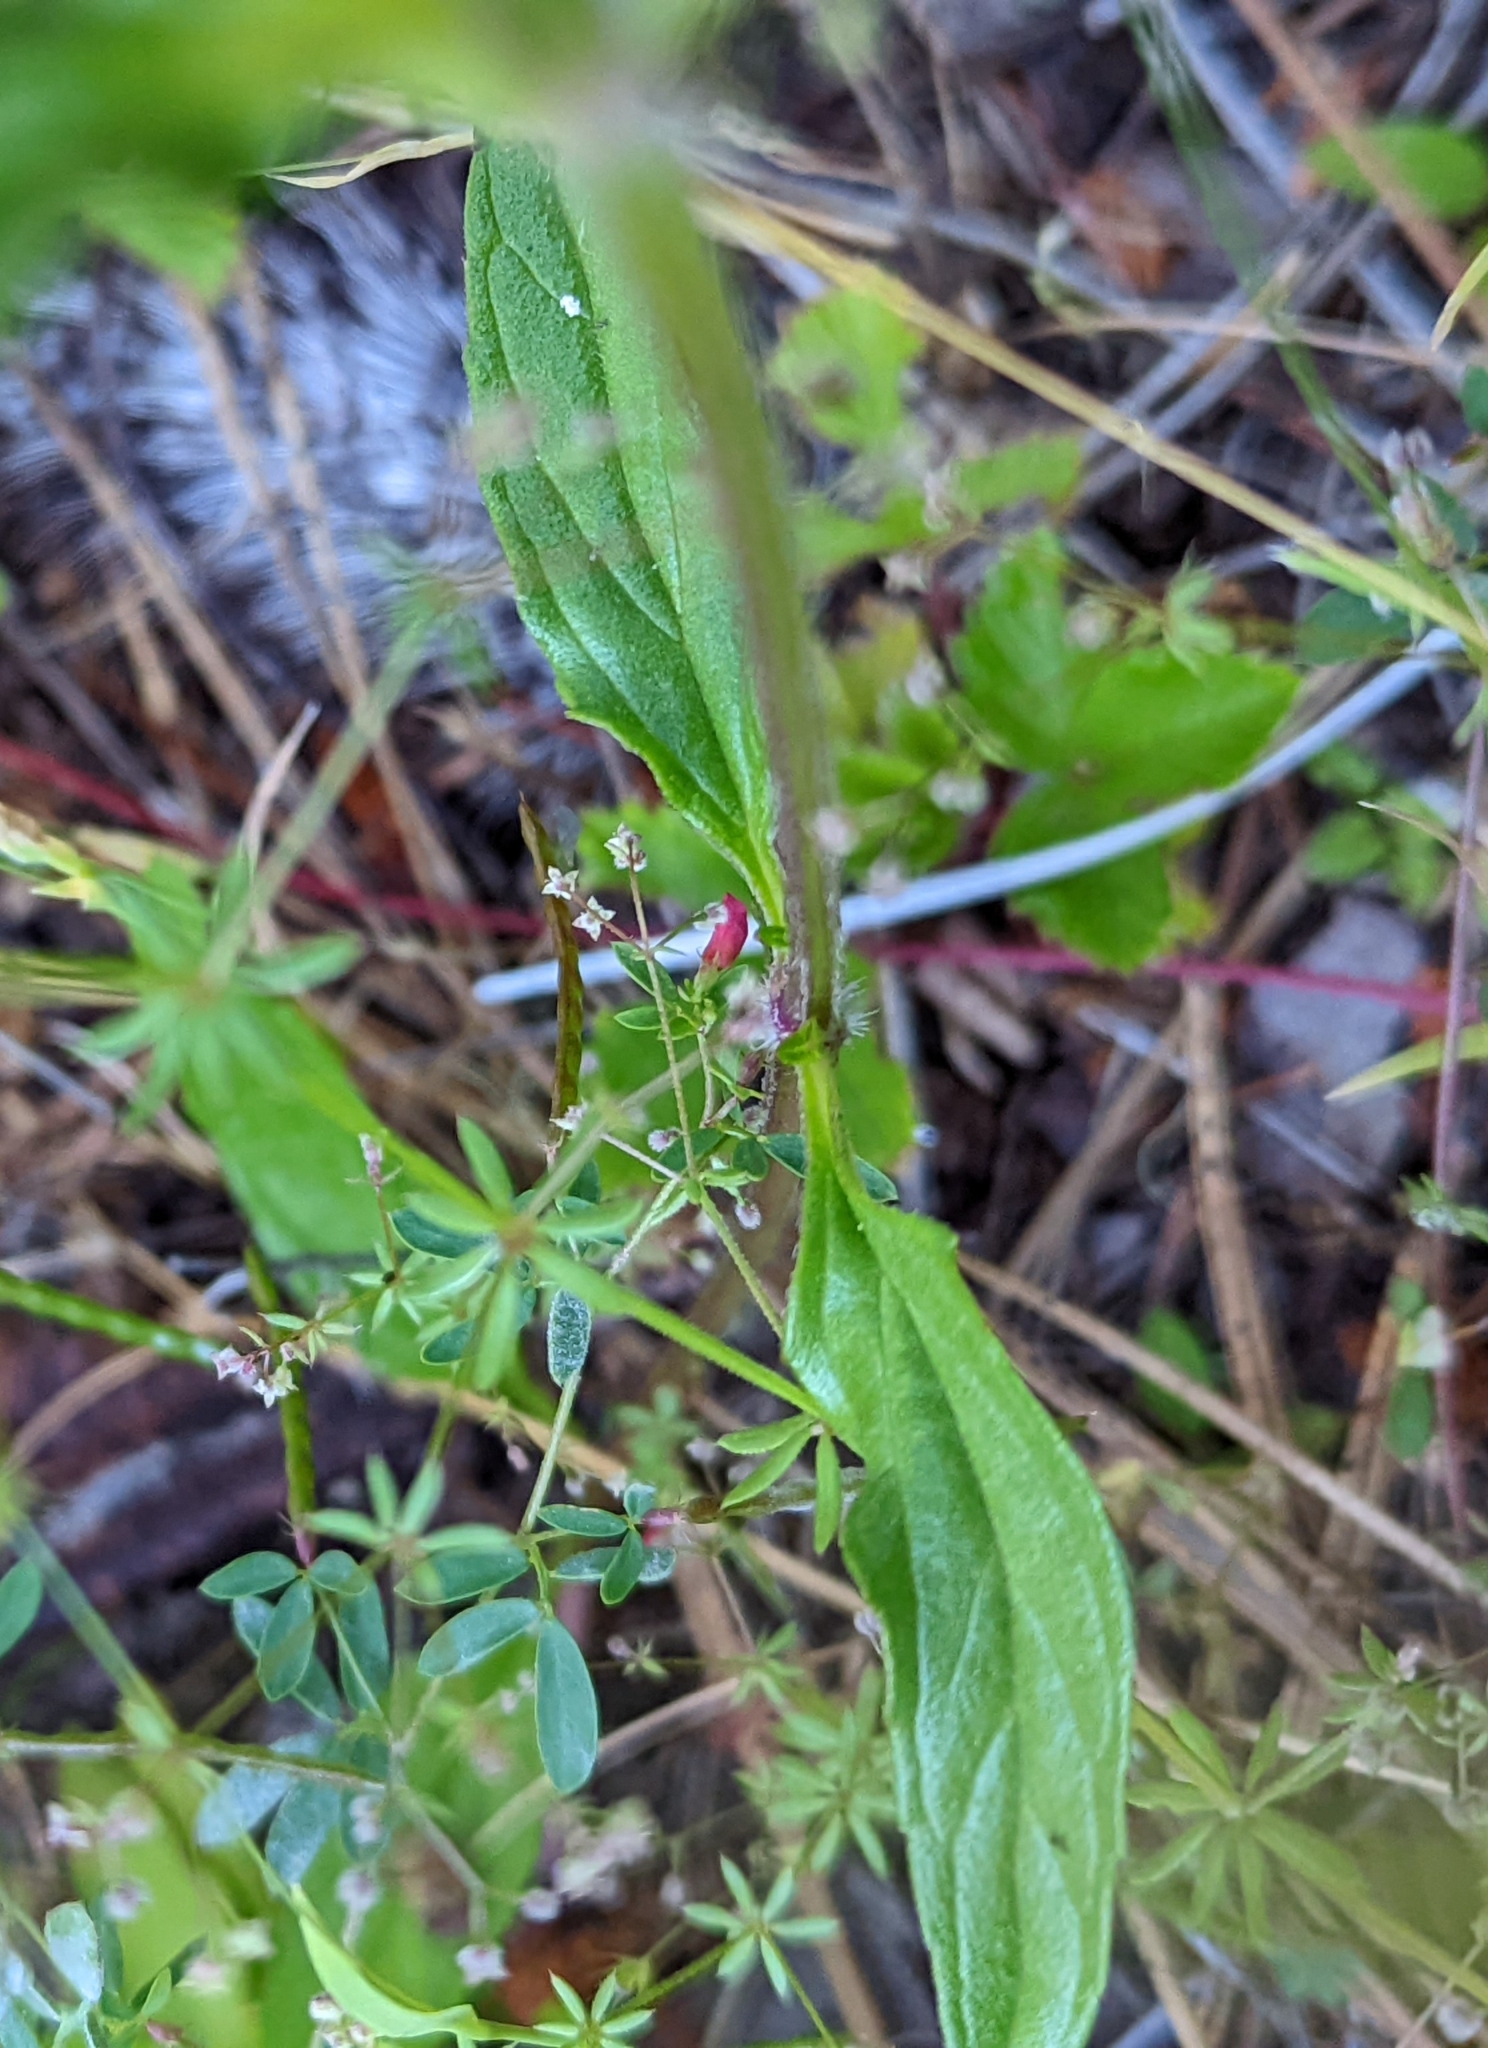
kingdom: Plantae
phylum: Tracheophyta
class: Magnoliopsida
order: Lamiales
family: Lamiaceae
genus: Prunella
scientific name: Prunella vulgaris
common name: Heal-all
